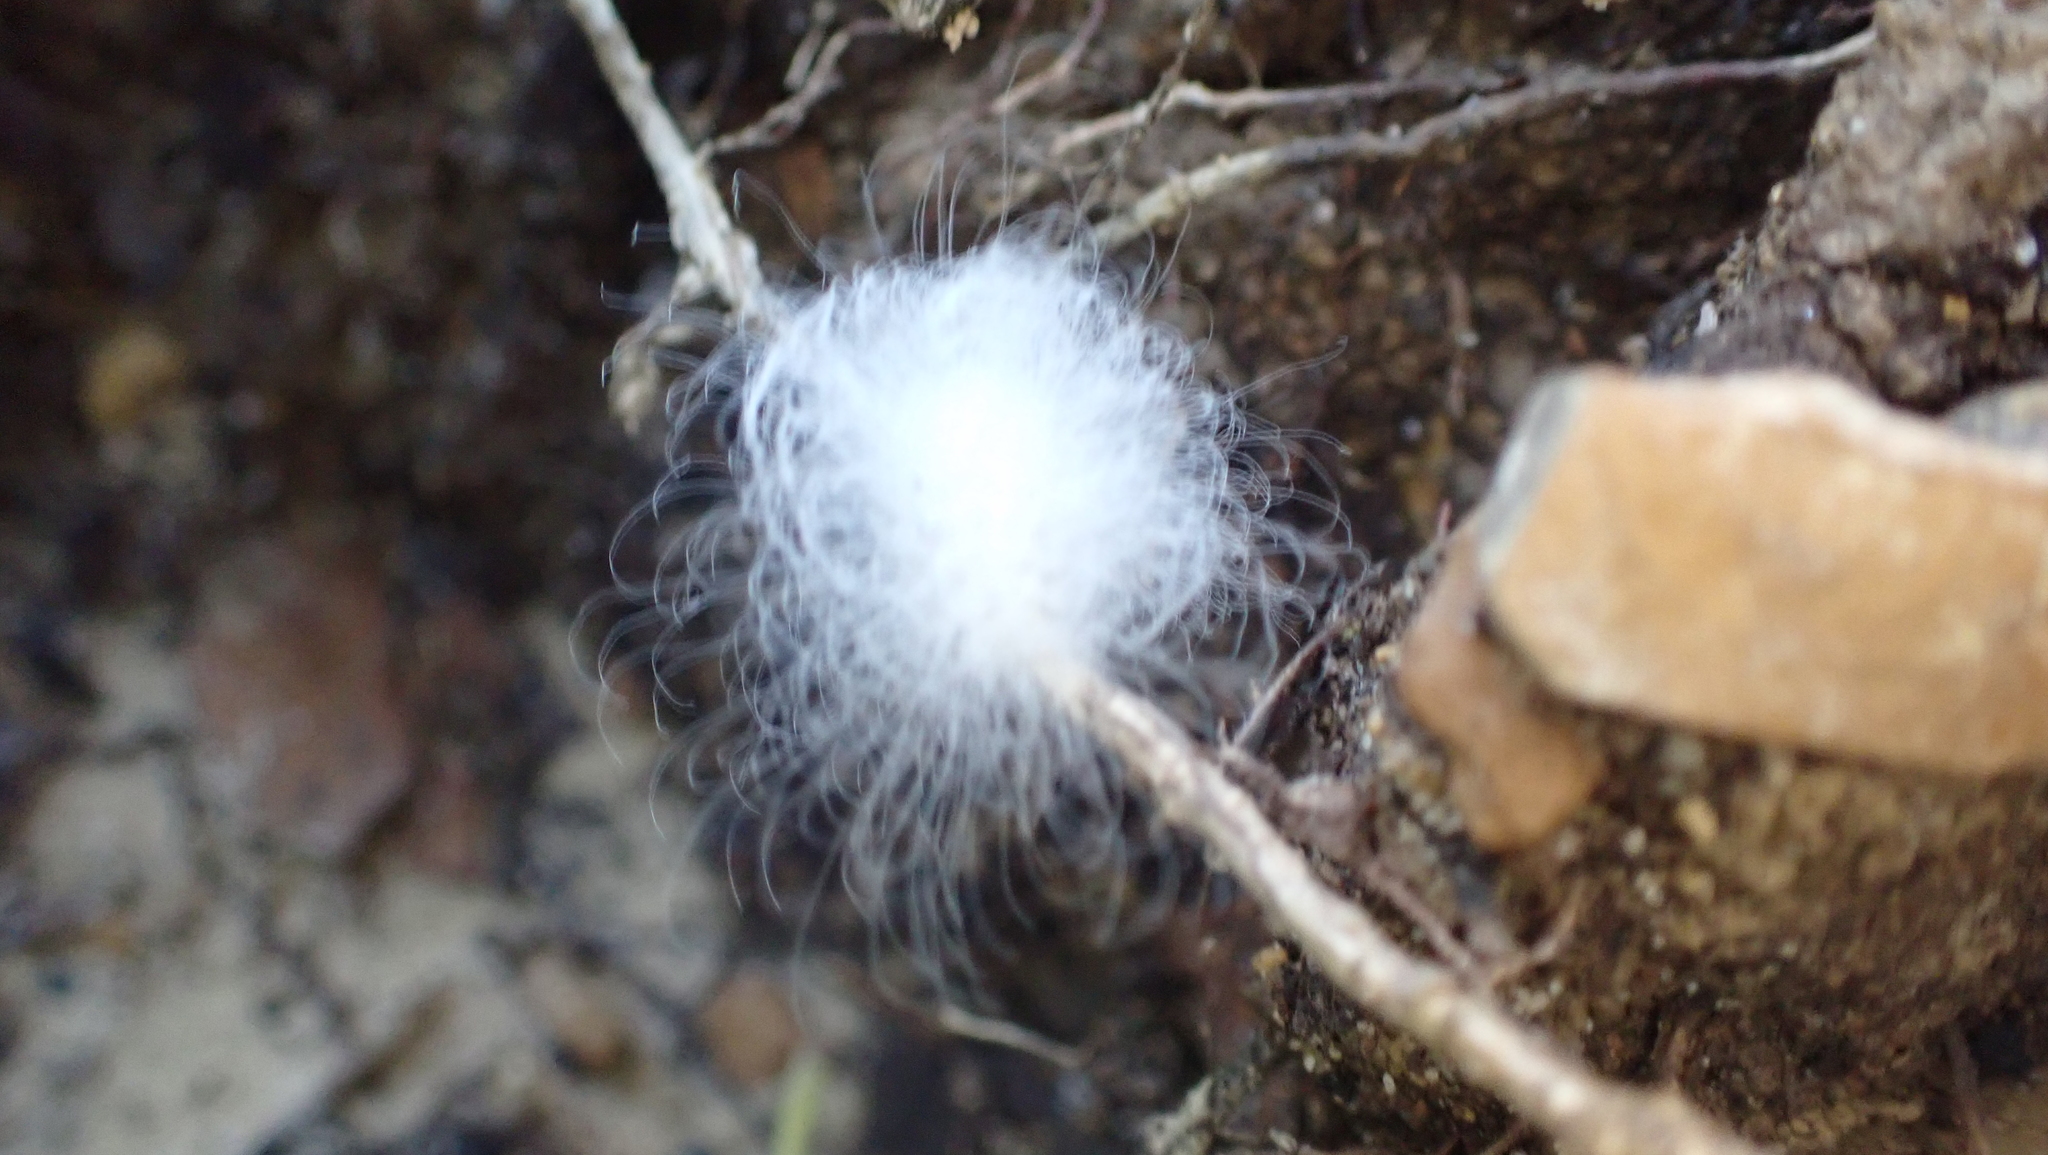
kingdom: Animalia
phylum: Arthropoda
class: Insecta
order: Lepidoptera
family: Megalopygidae
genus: Megalopyge
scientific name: Megalopyge crispata
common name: Black-waved flannel moth
